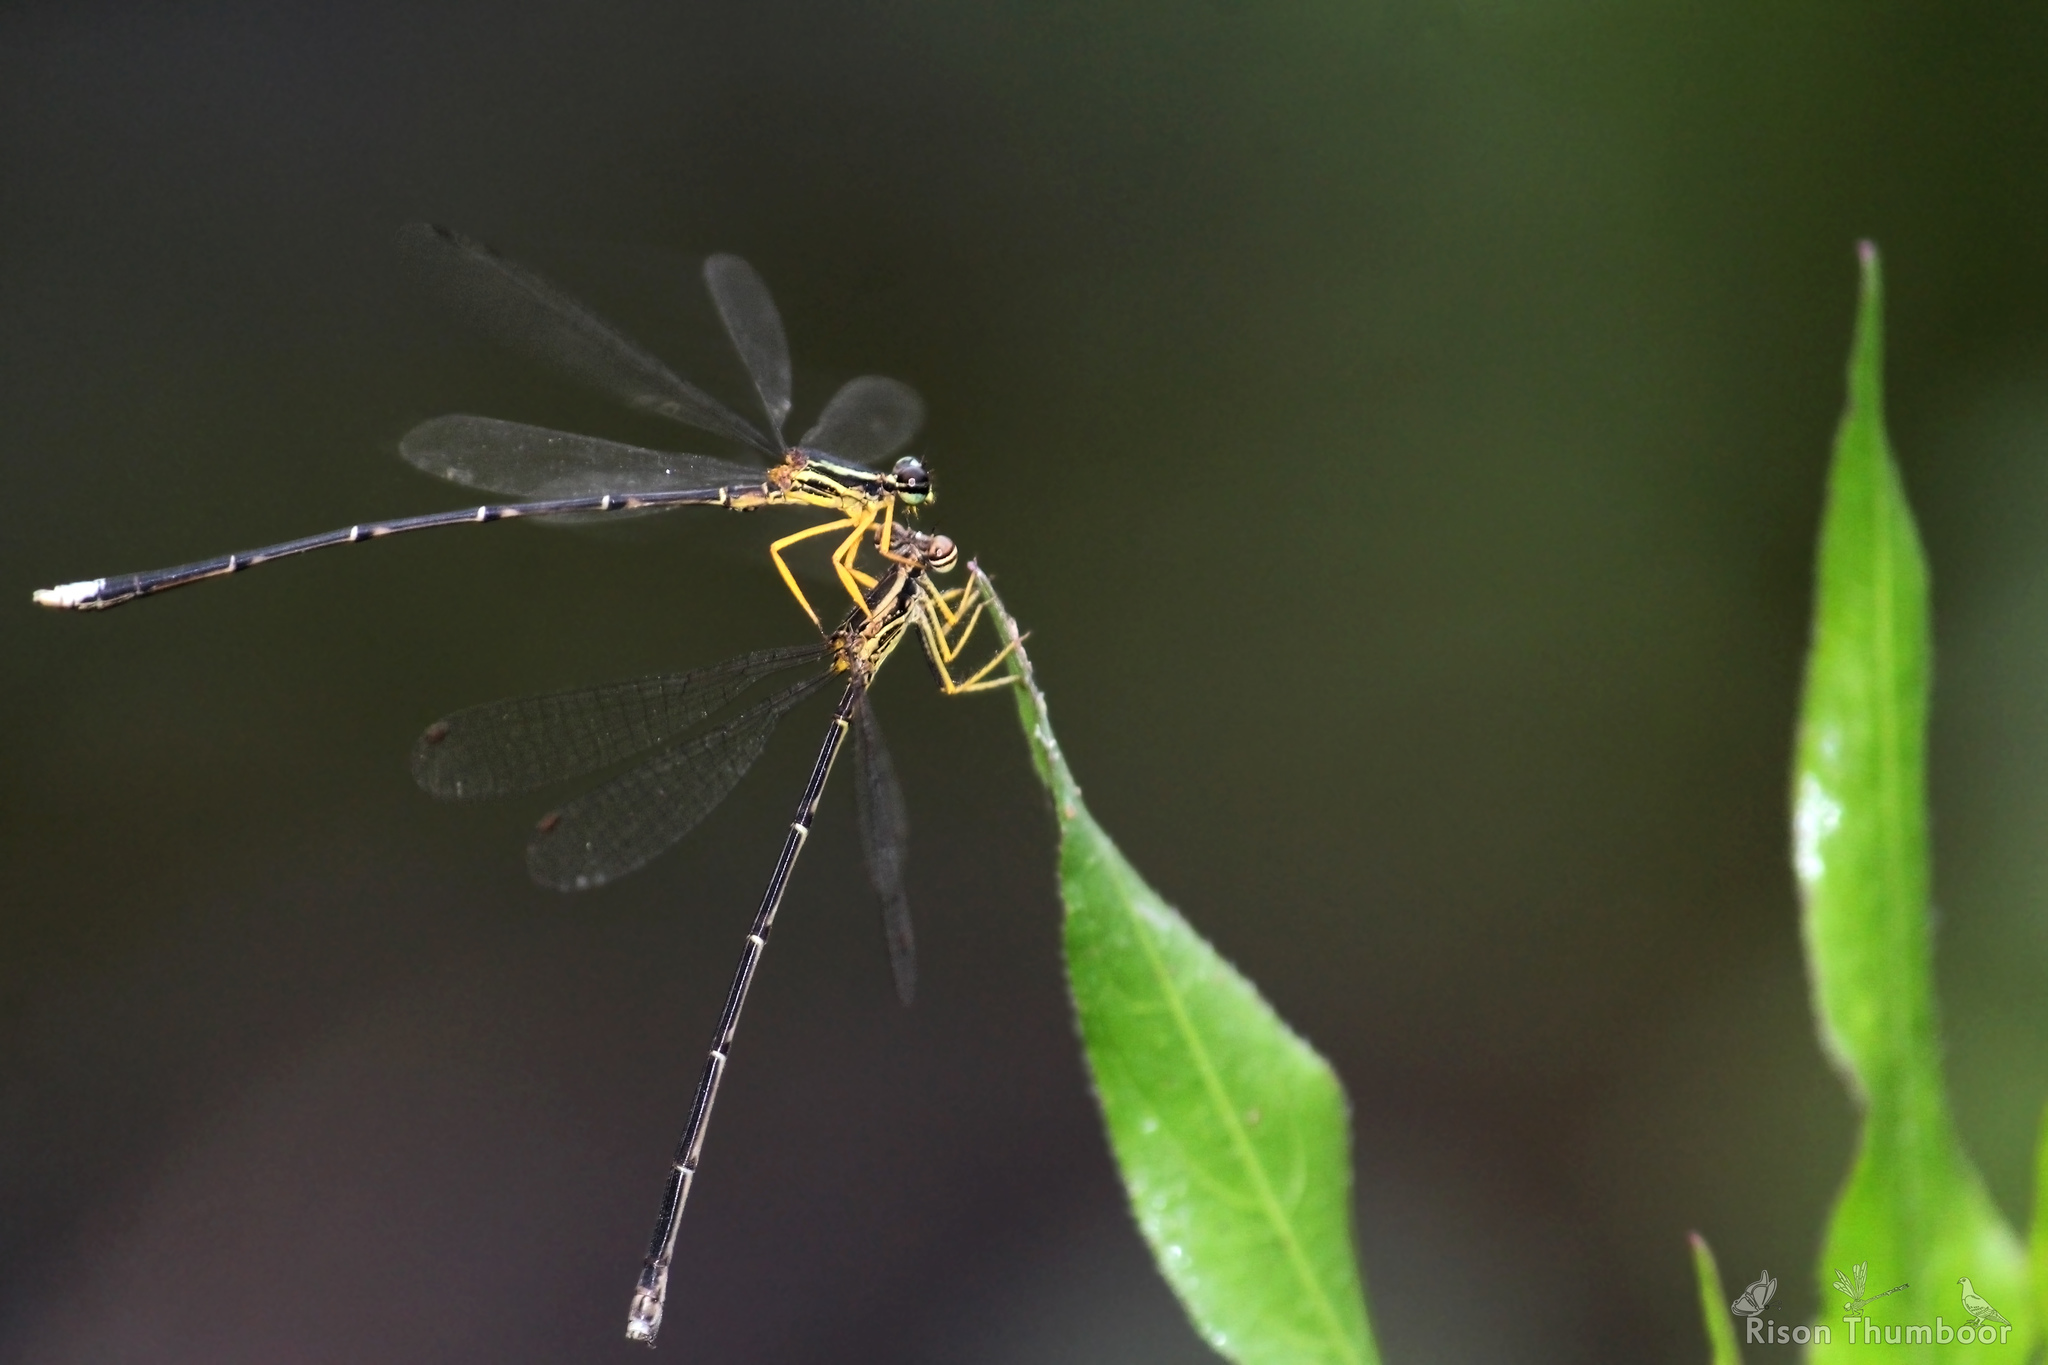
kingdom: Animalia
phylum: Arthropoda
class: Insecta
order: Odonata
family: Platycnemididae
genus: Copera
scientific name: Copera marginipes
